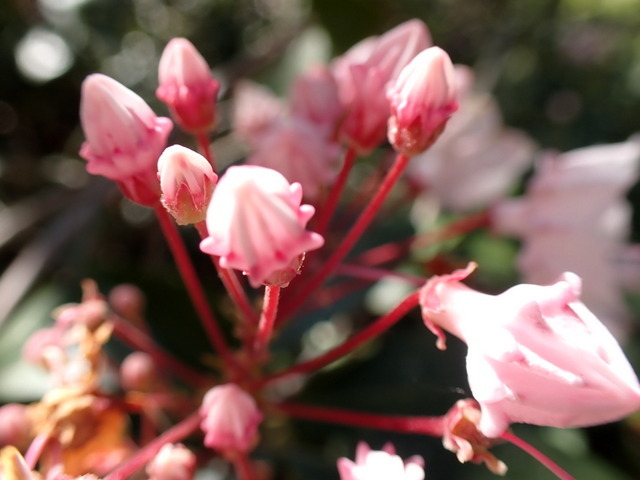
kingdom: Plantae
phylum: Tracheophyta
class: Magnoliopsida
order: Ericales
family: Ericaceae
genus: Kalmia
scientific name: Kalmia latifolia
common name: Mountain-laurel
